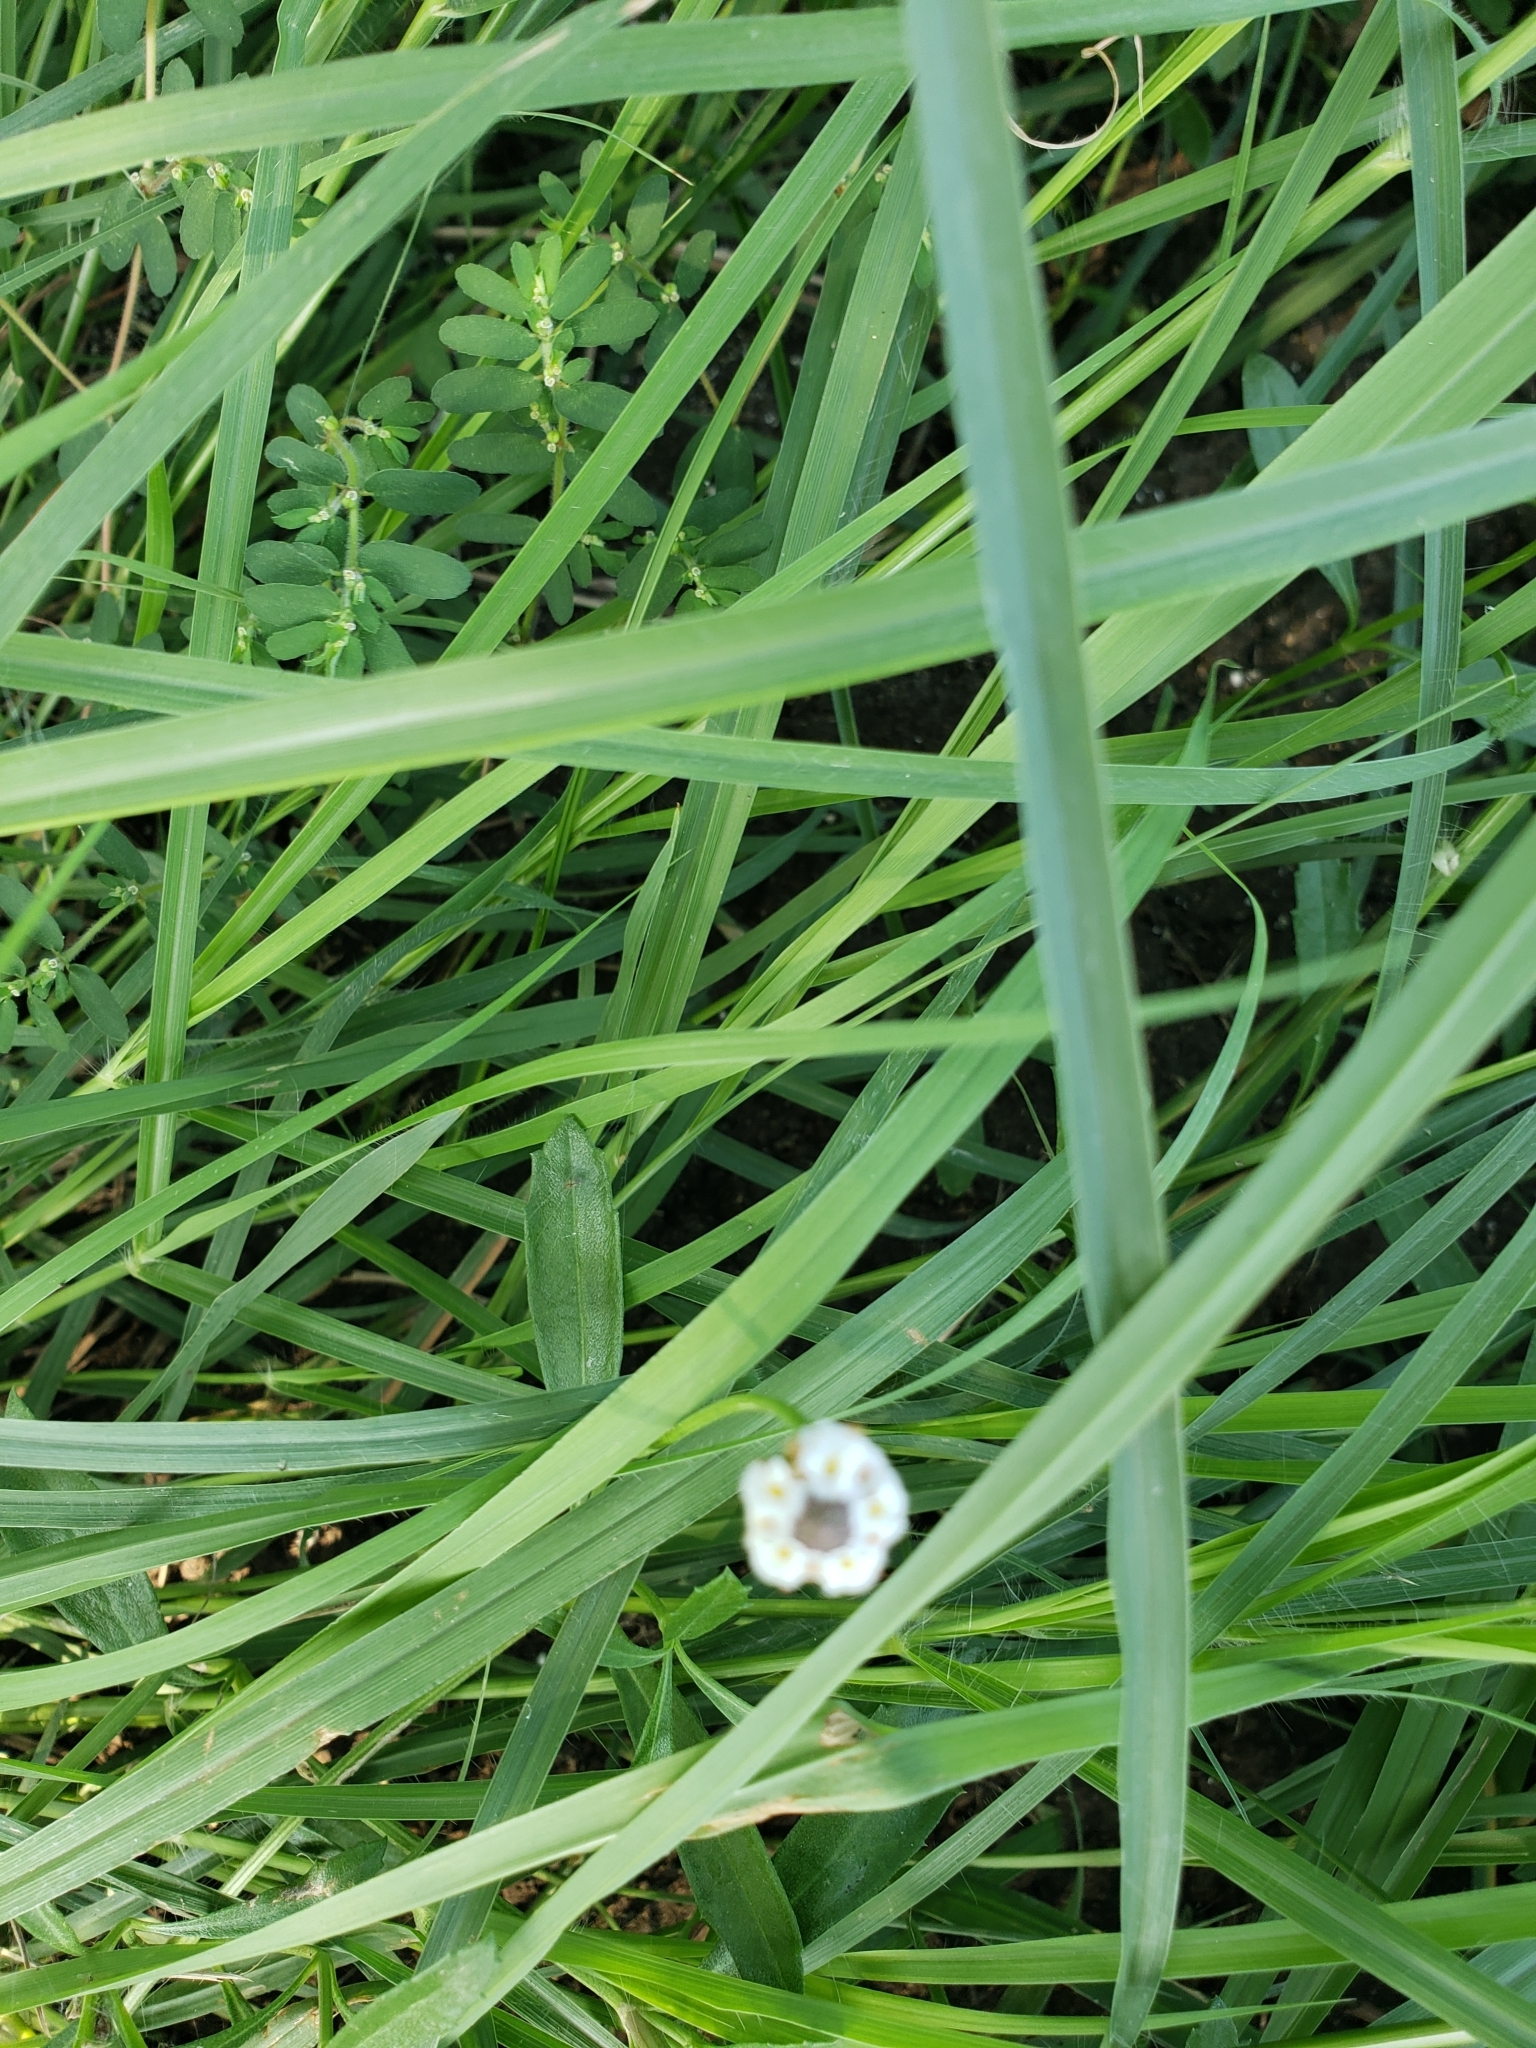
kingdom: Plantae
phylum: Tracheophyta
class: Magnoliopsida
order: Lamiales
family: Verbenaceae
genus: Phyla
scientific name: Phyla nodiflora
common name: Frogfruit
